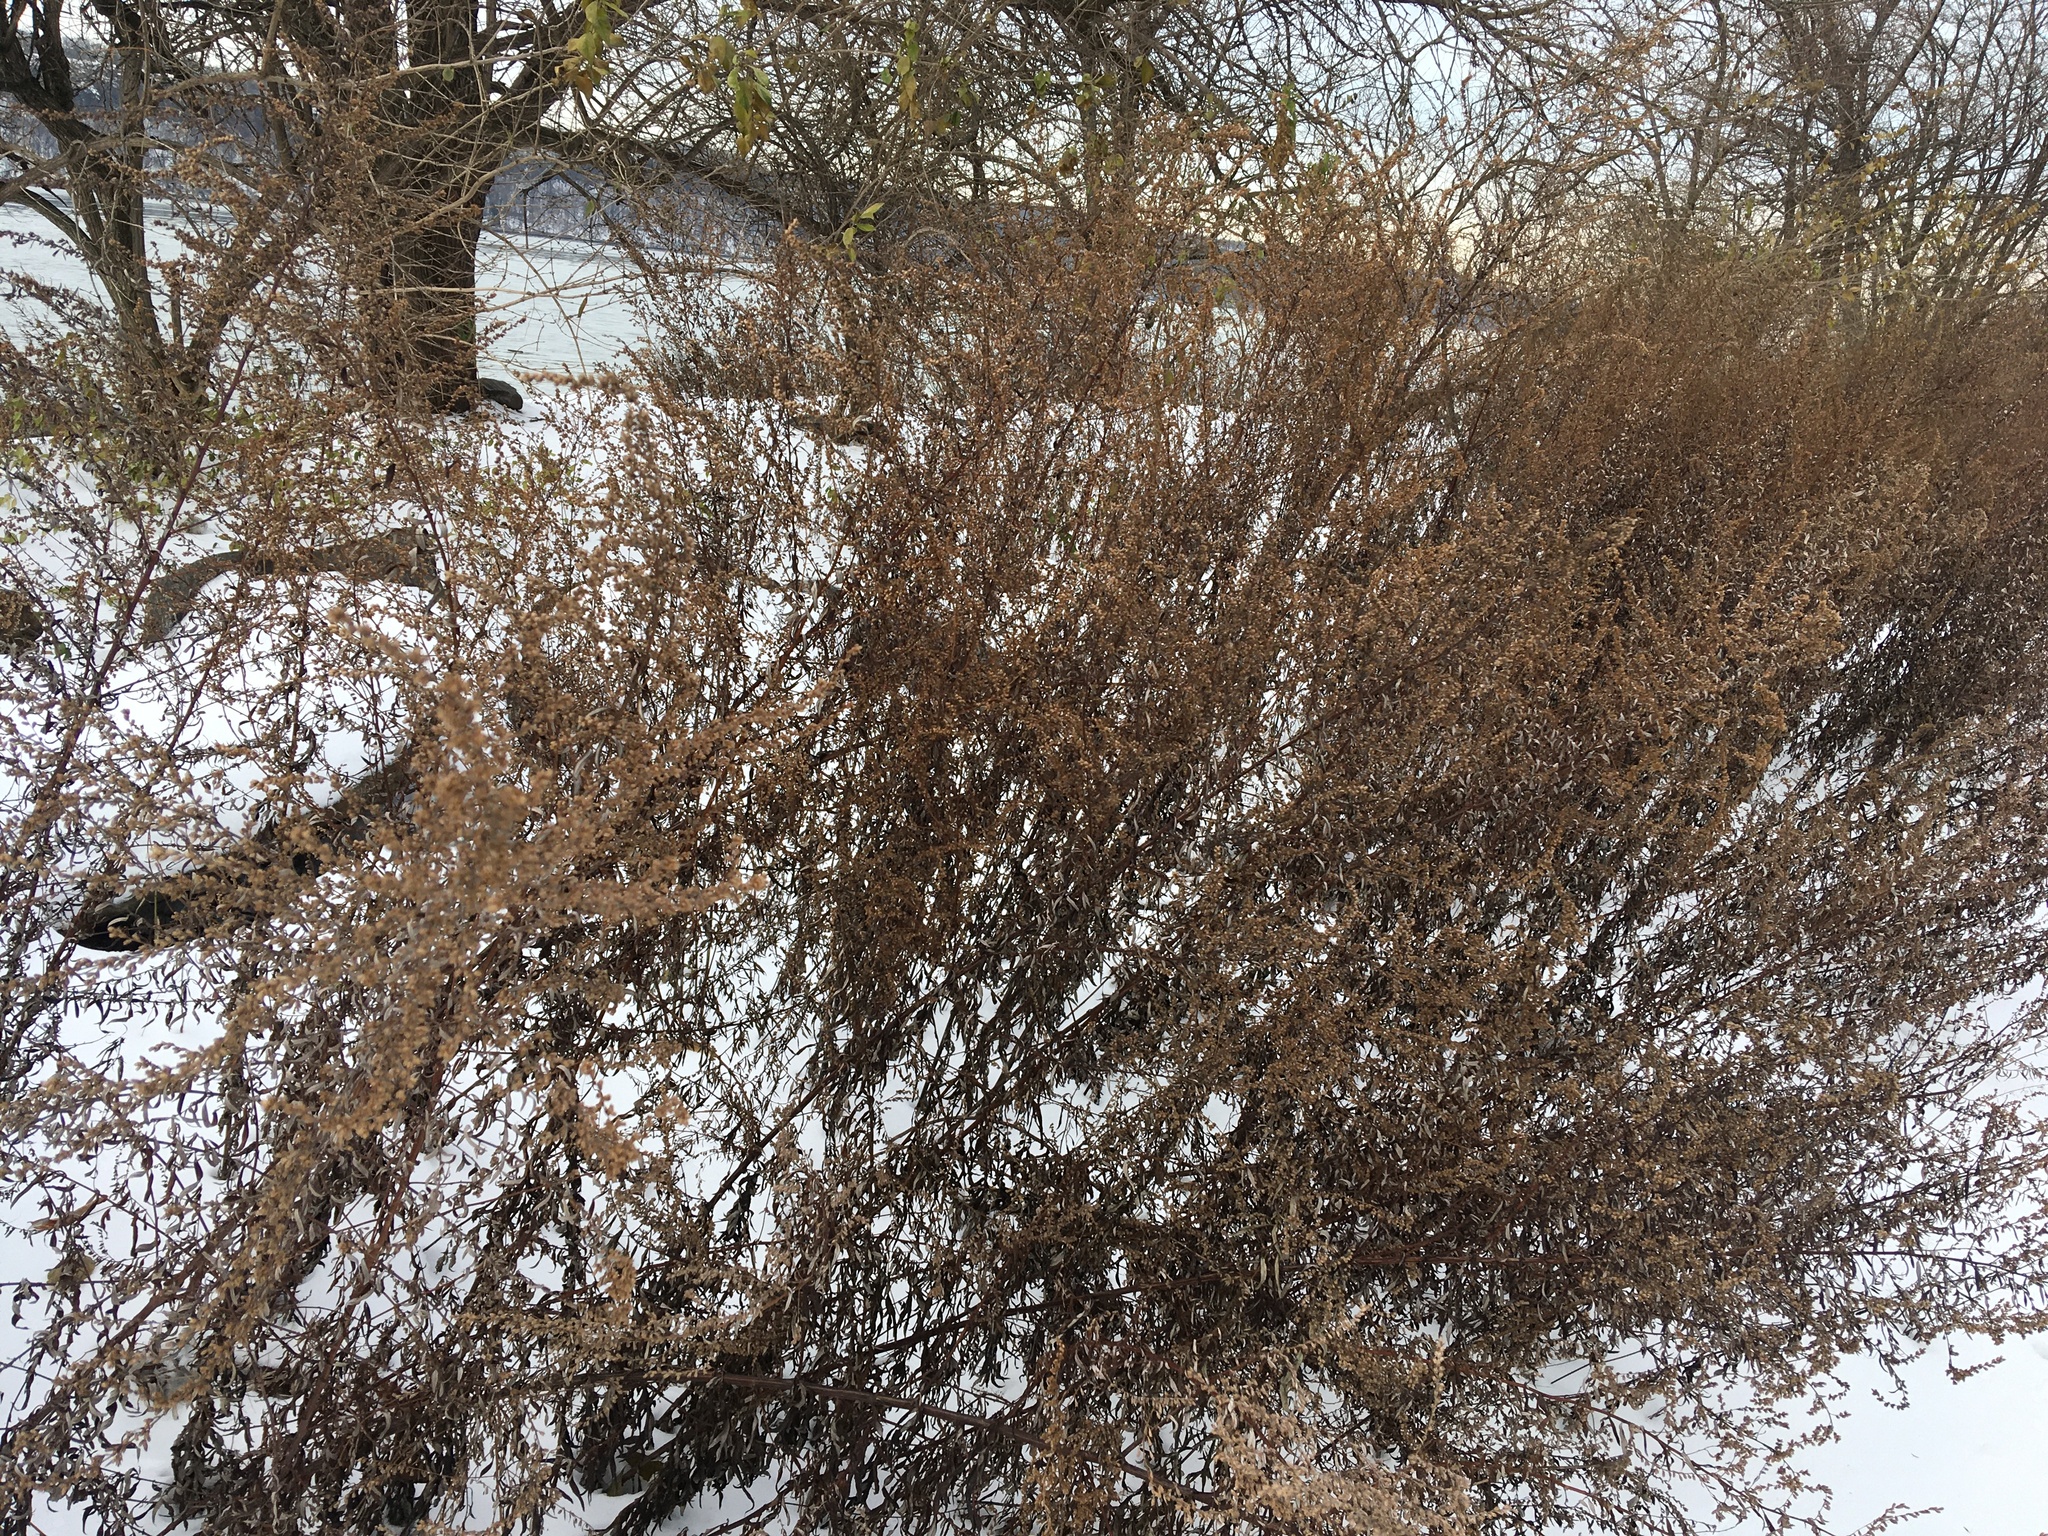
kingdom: Plantae
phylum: Tracheophyta
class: Magnoliopsida
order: Asterales
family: Asteraceae
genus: Artemisia
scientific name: Artemisia vulgaris
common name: Mugwort
